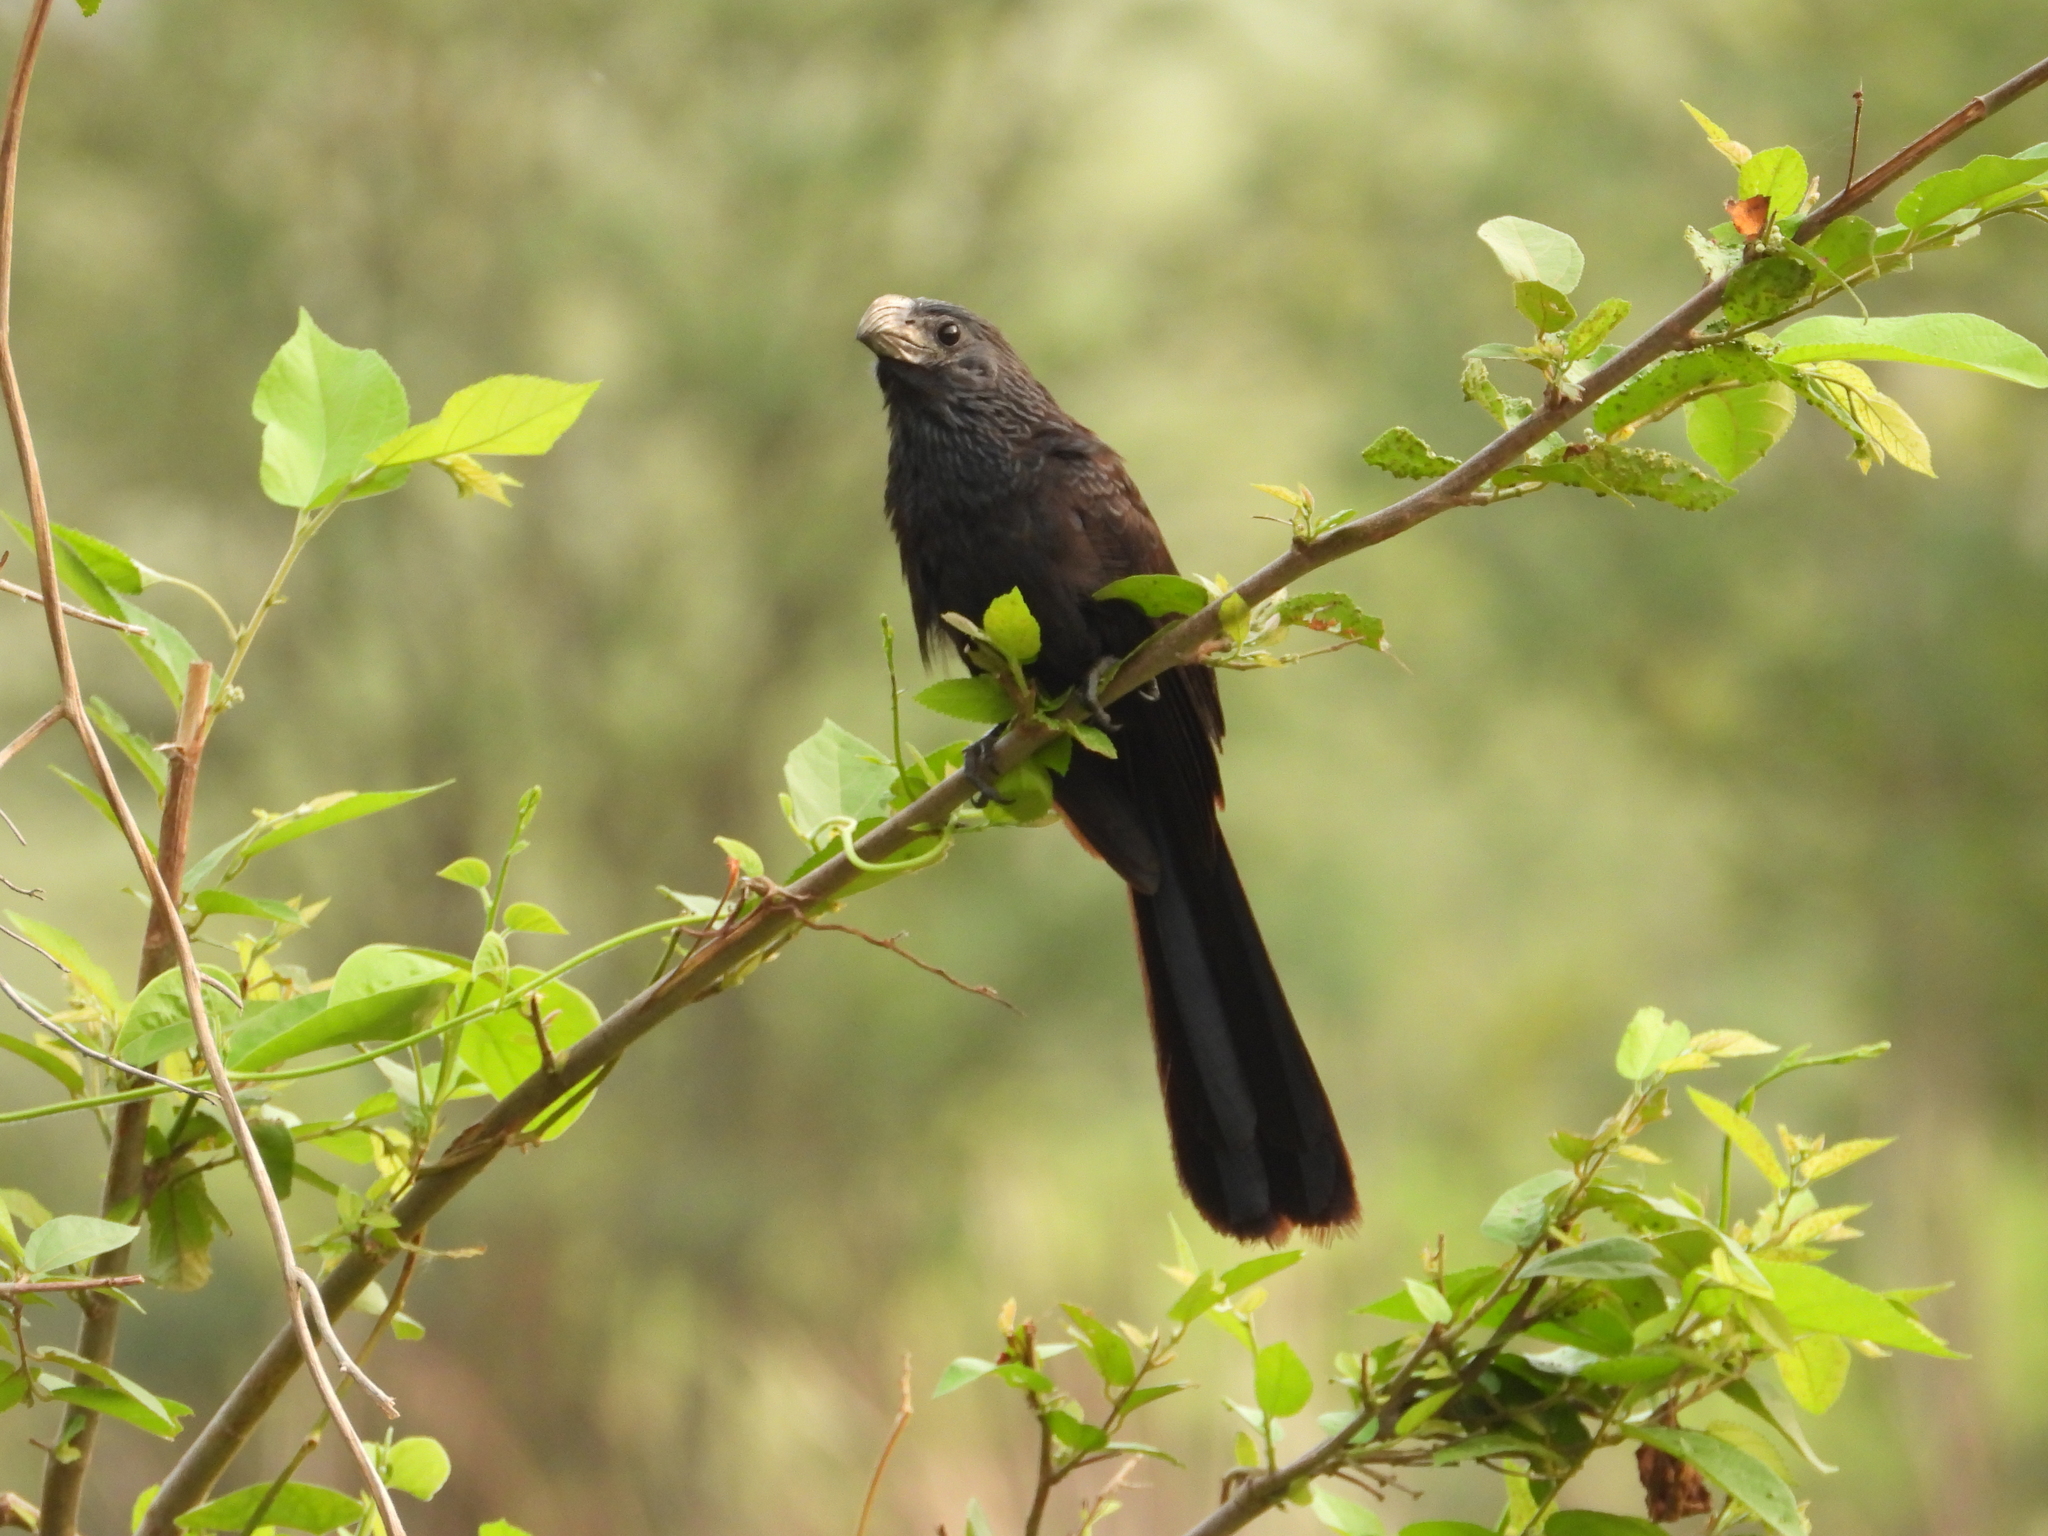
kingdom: Animalia
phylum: Chordata
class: Aves
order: Cuculiformes
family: Cuculidae
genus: Crotophaga
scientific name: Crotophaga sulcirostris
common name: Groove-billed ani
